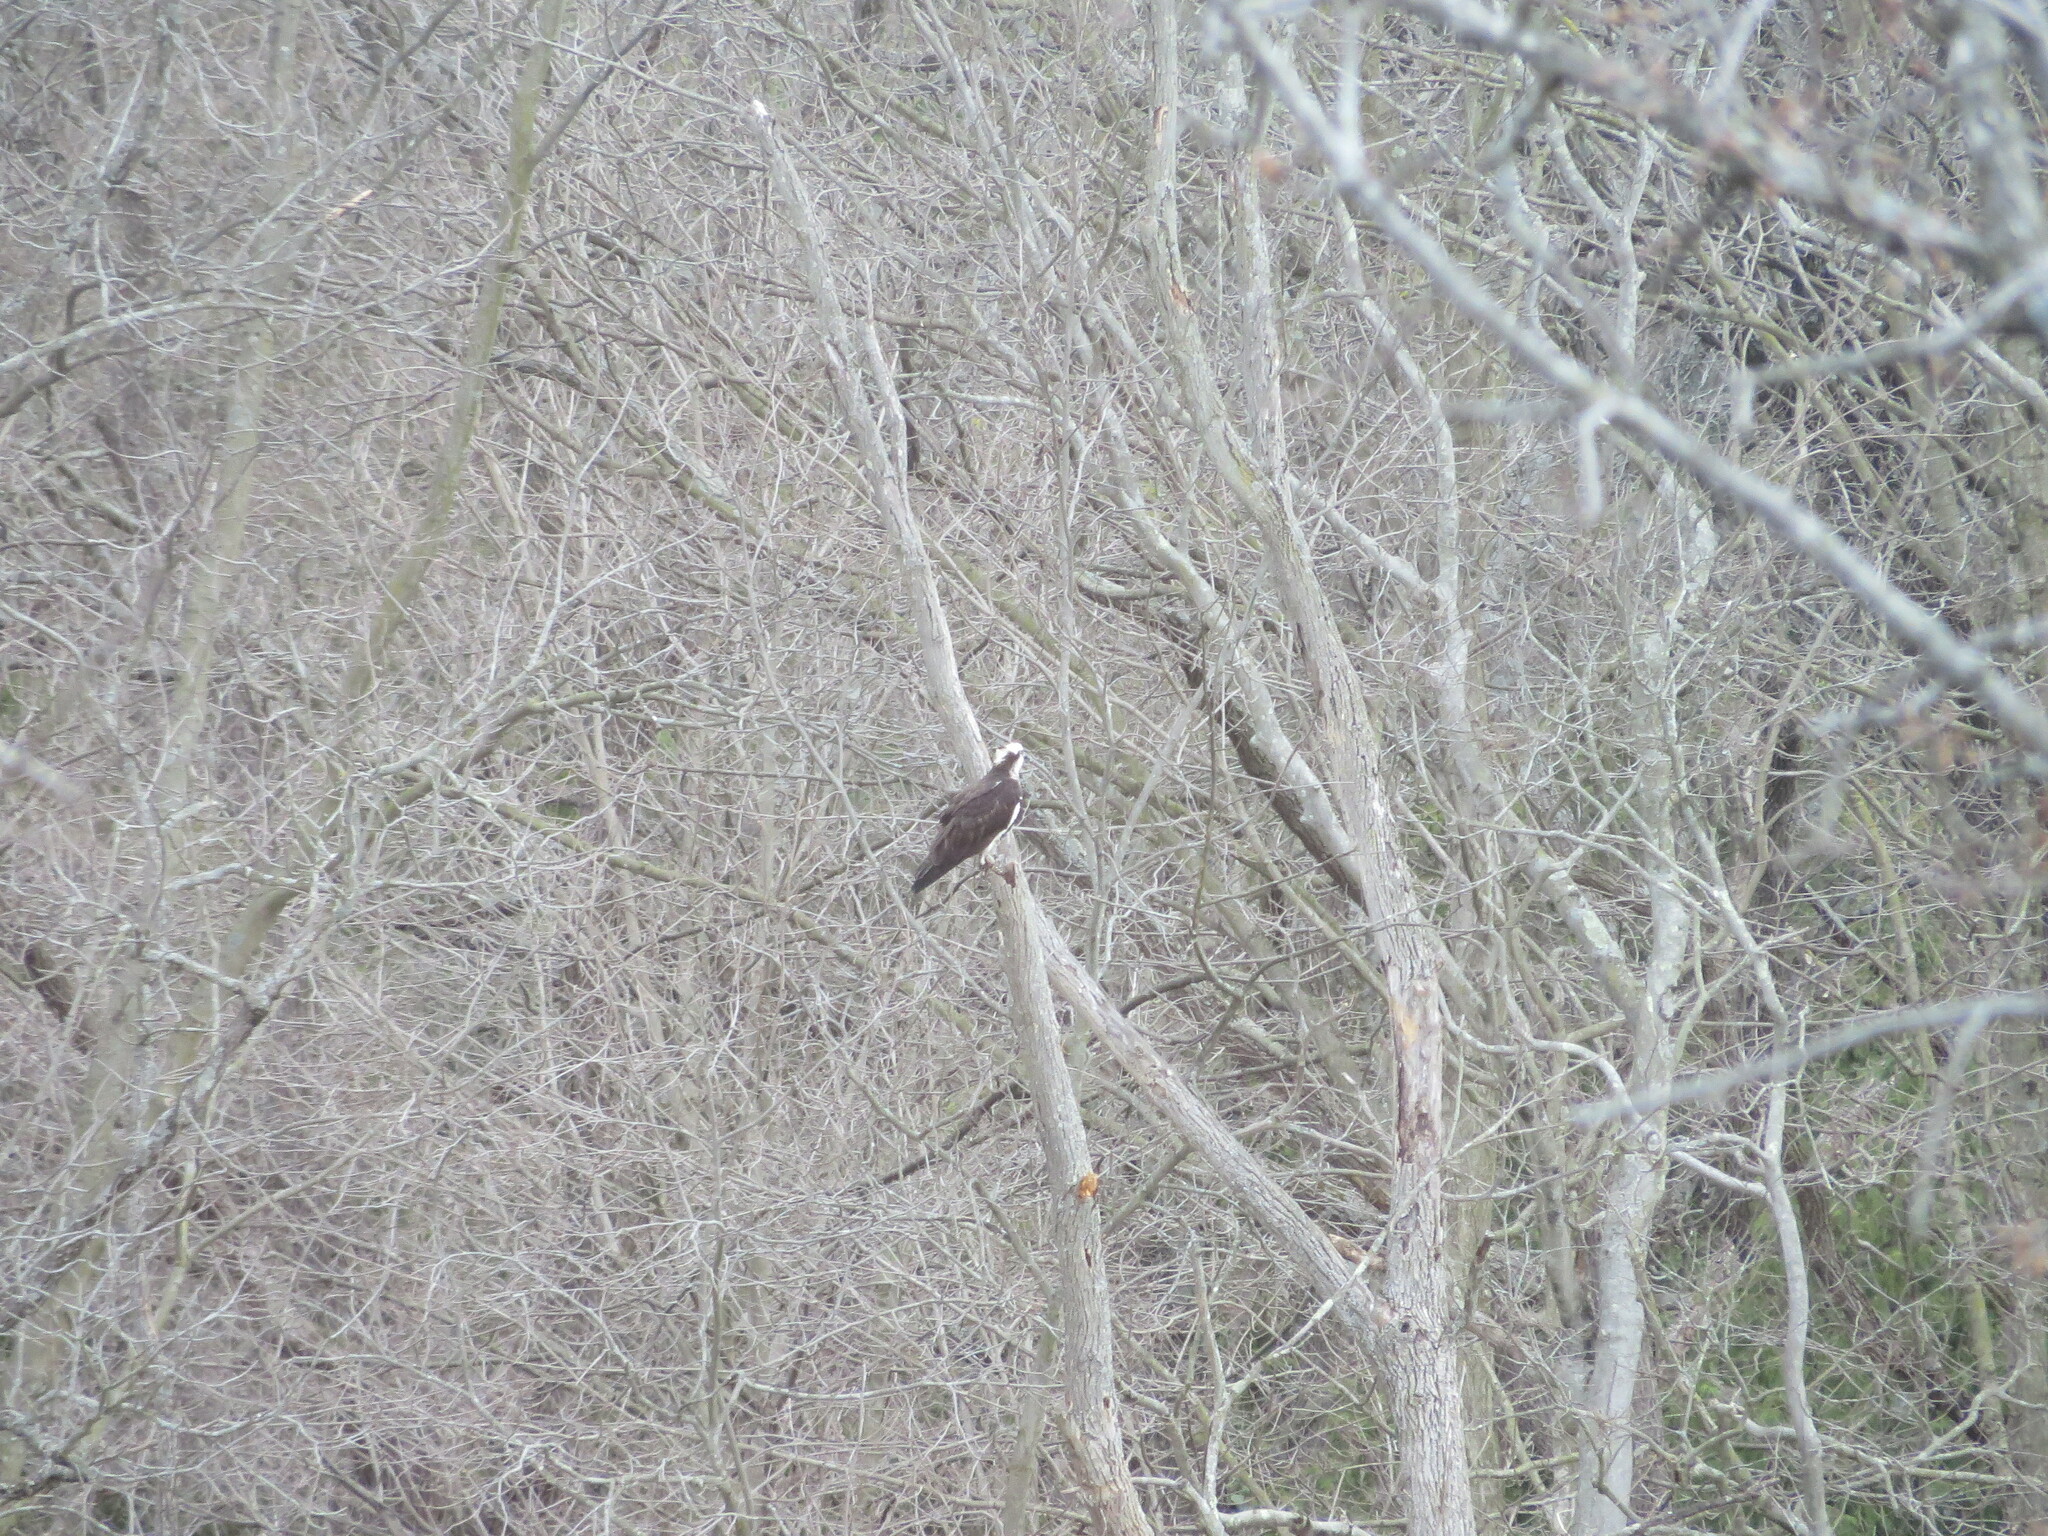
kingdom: Animalia
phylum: Chordata
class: Aves
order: Accipitriformes
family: Pandionidae
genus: Pandion
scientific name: Pandion haliaetus
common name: Osprey
